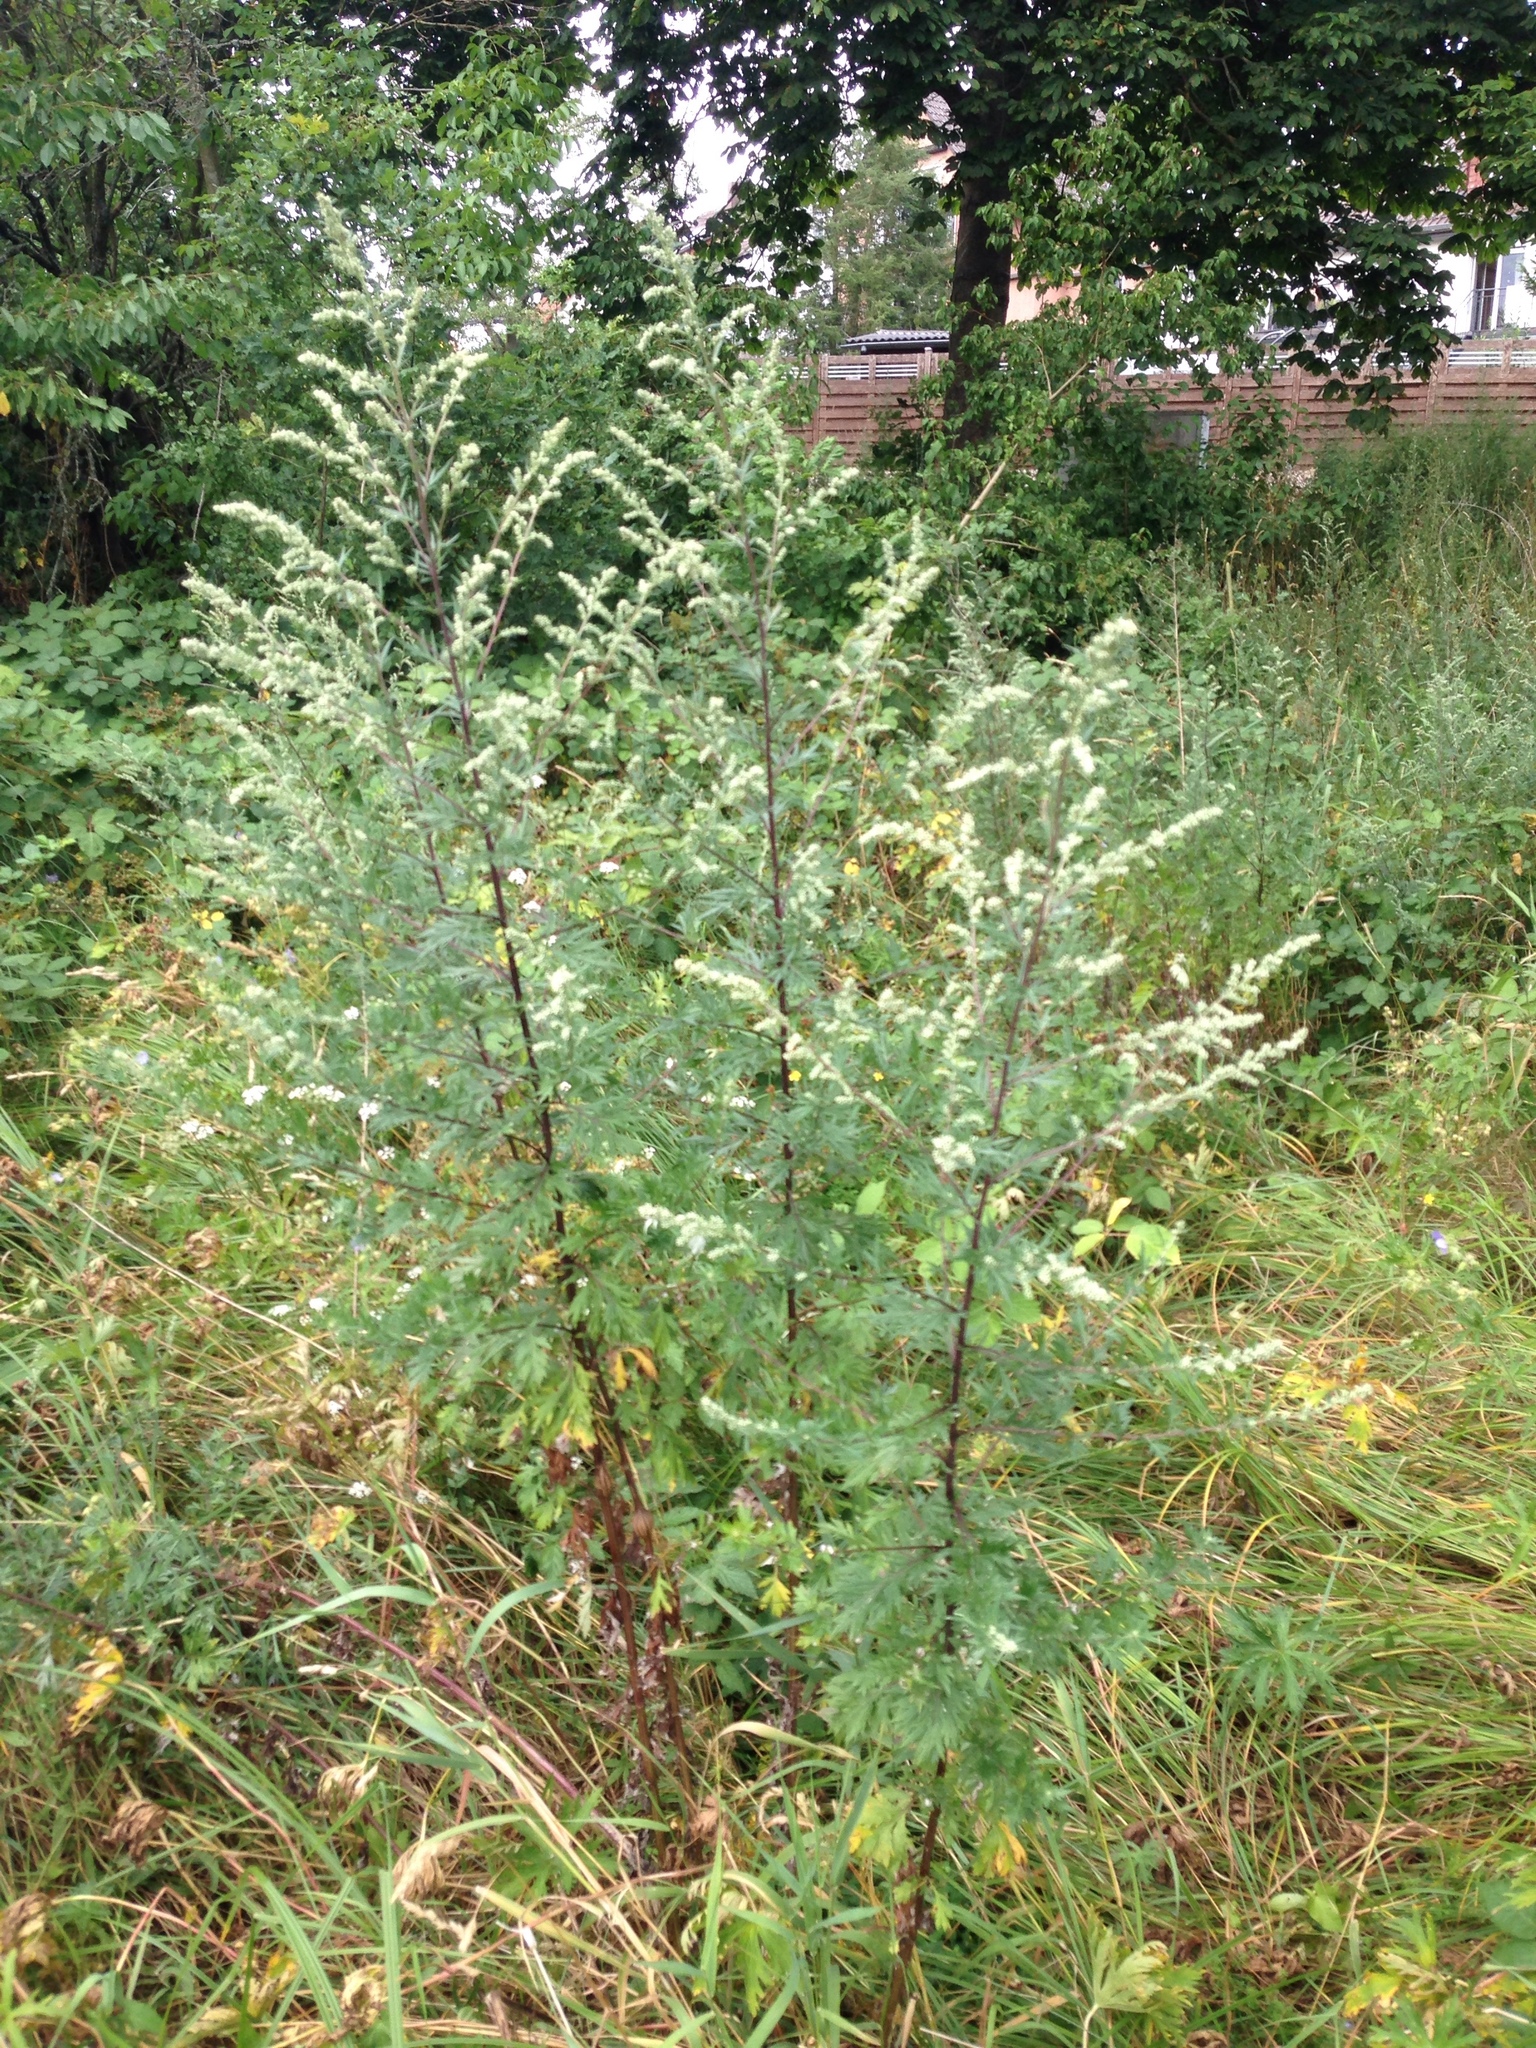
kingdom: Plantae
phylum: Tracheophyta
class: Magnoliopsida
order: Asterales
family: Asteraceae
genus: Artemisia
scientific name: Artemisia vulgaris
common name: Mugwort
